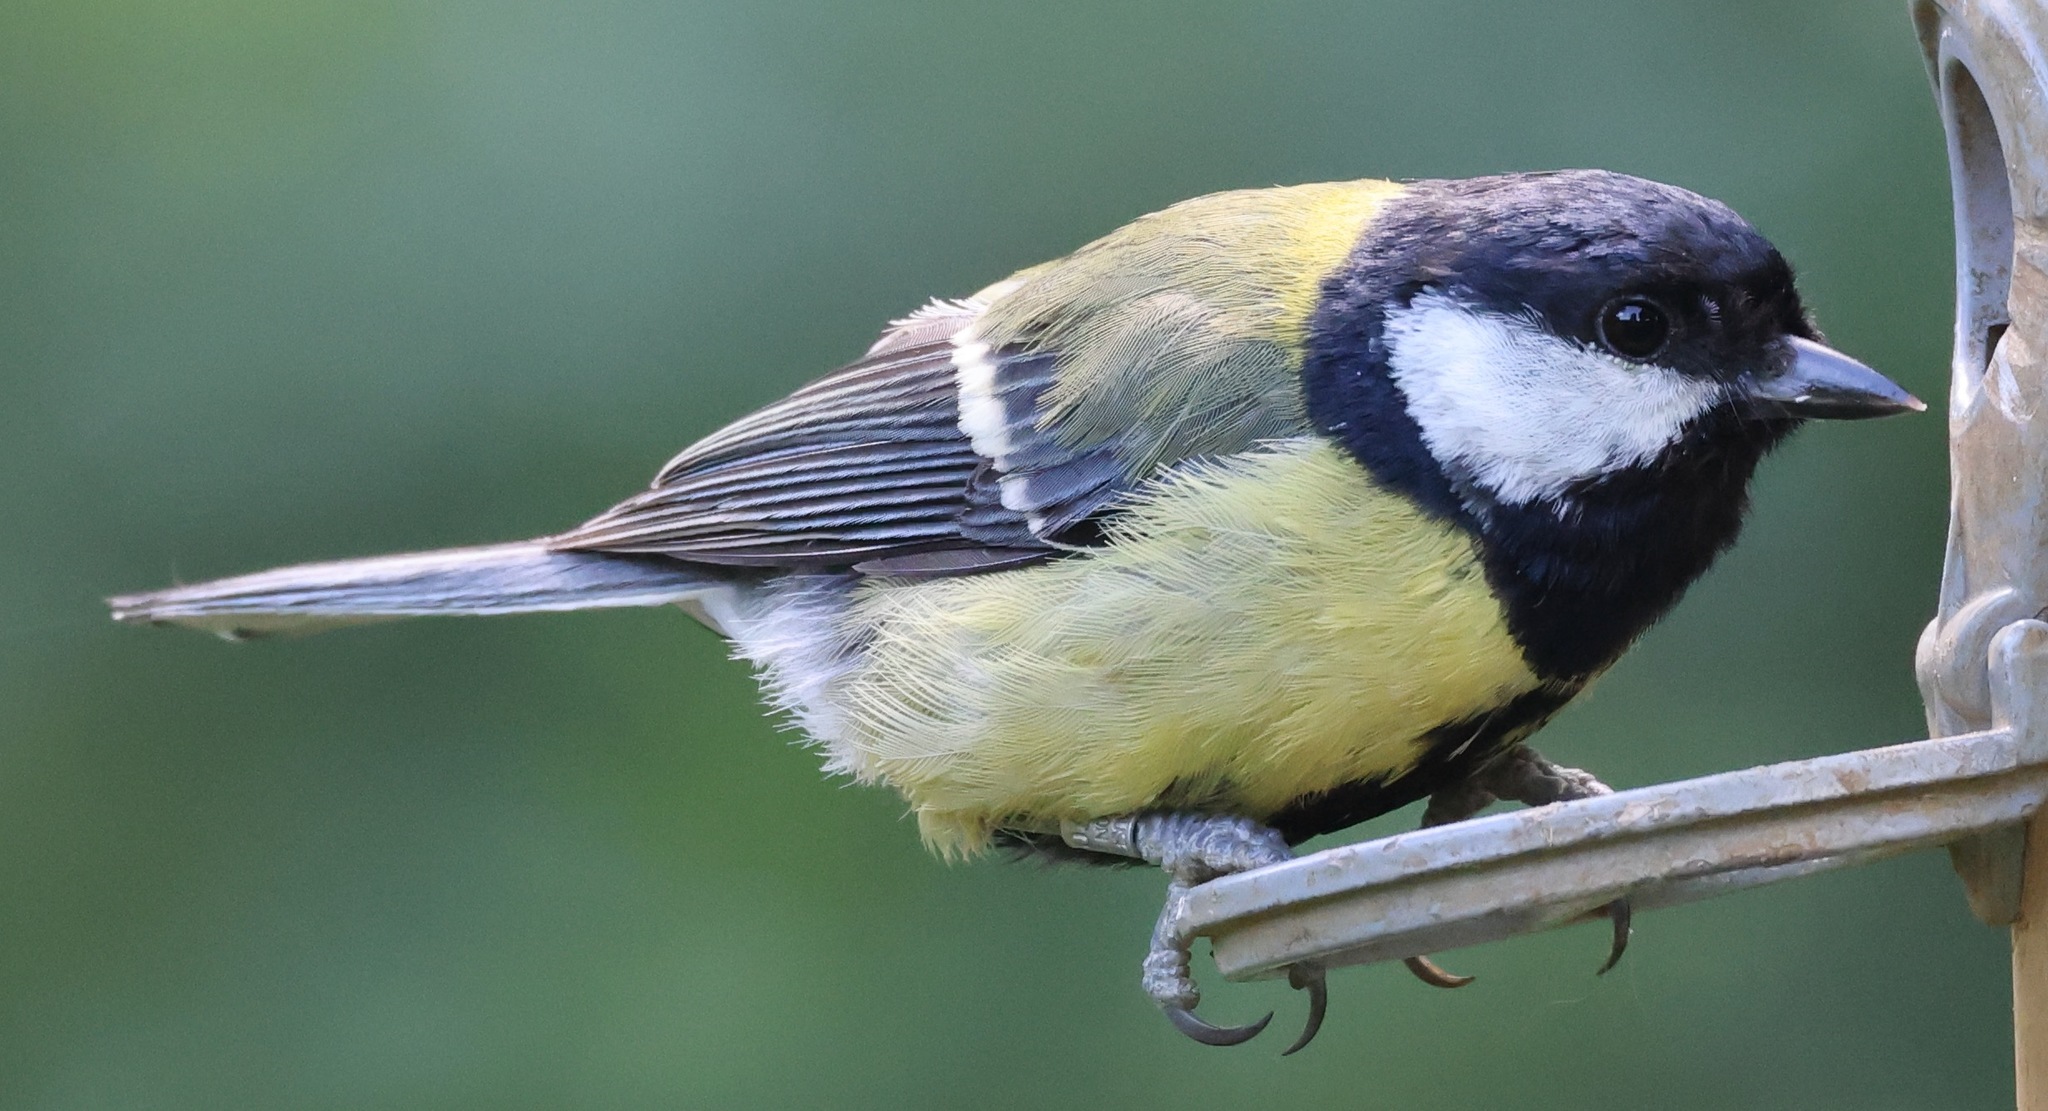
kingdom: Animalia
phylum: Chordata
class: Aves
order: Passeriformes
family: Paridae
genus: Parus
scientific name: Parus major
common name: Great tit
